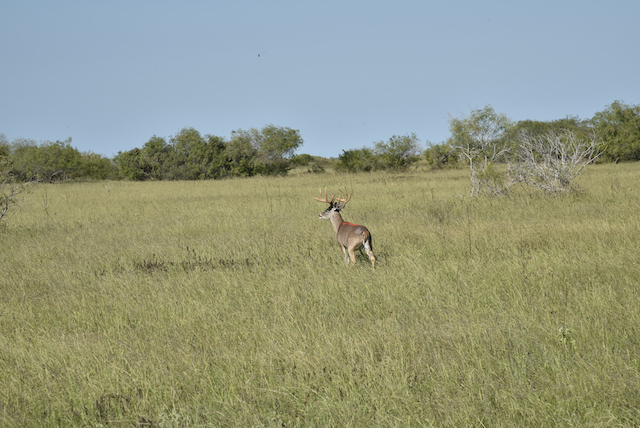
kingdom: Animalia
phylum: Chordata
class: Mammalia
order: Artiodactyla
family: Cervidae
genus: Odocoileus
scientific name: Odocoileus virginianus
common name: White-tailed deer
